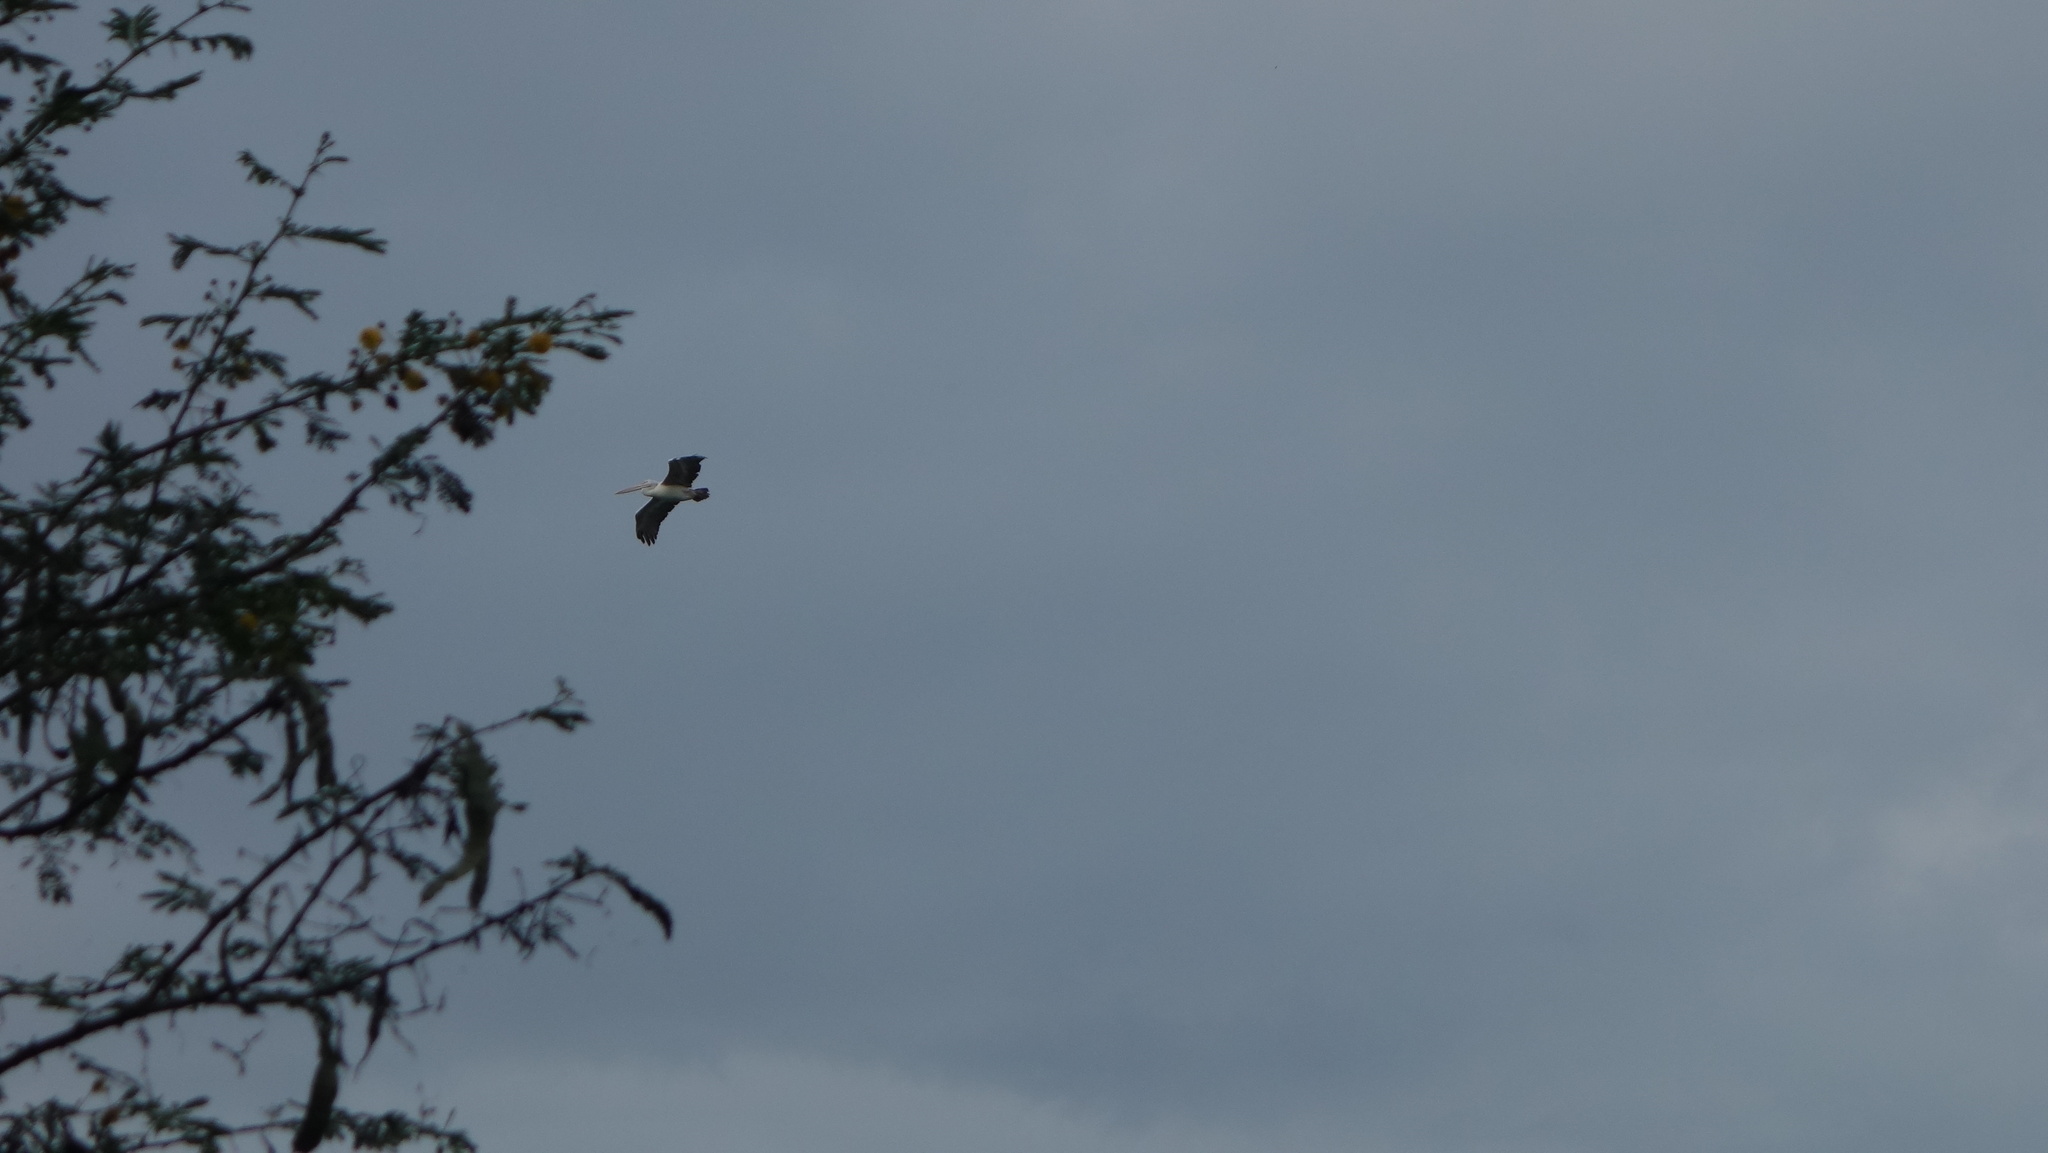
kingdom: Animalia
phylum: Chordata
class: Aves
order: Pelecaniformes
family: Pelecanidae
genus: Pelecanus
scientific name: Pelecanus philippensis
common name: Spot-billed pelican
